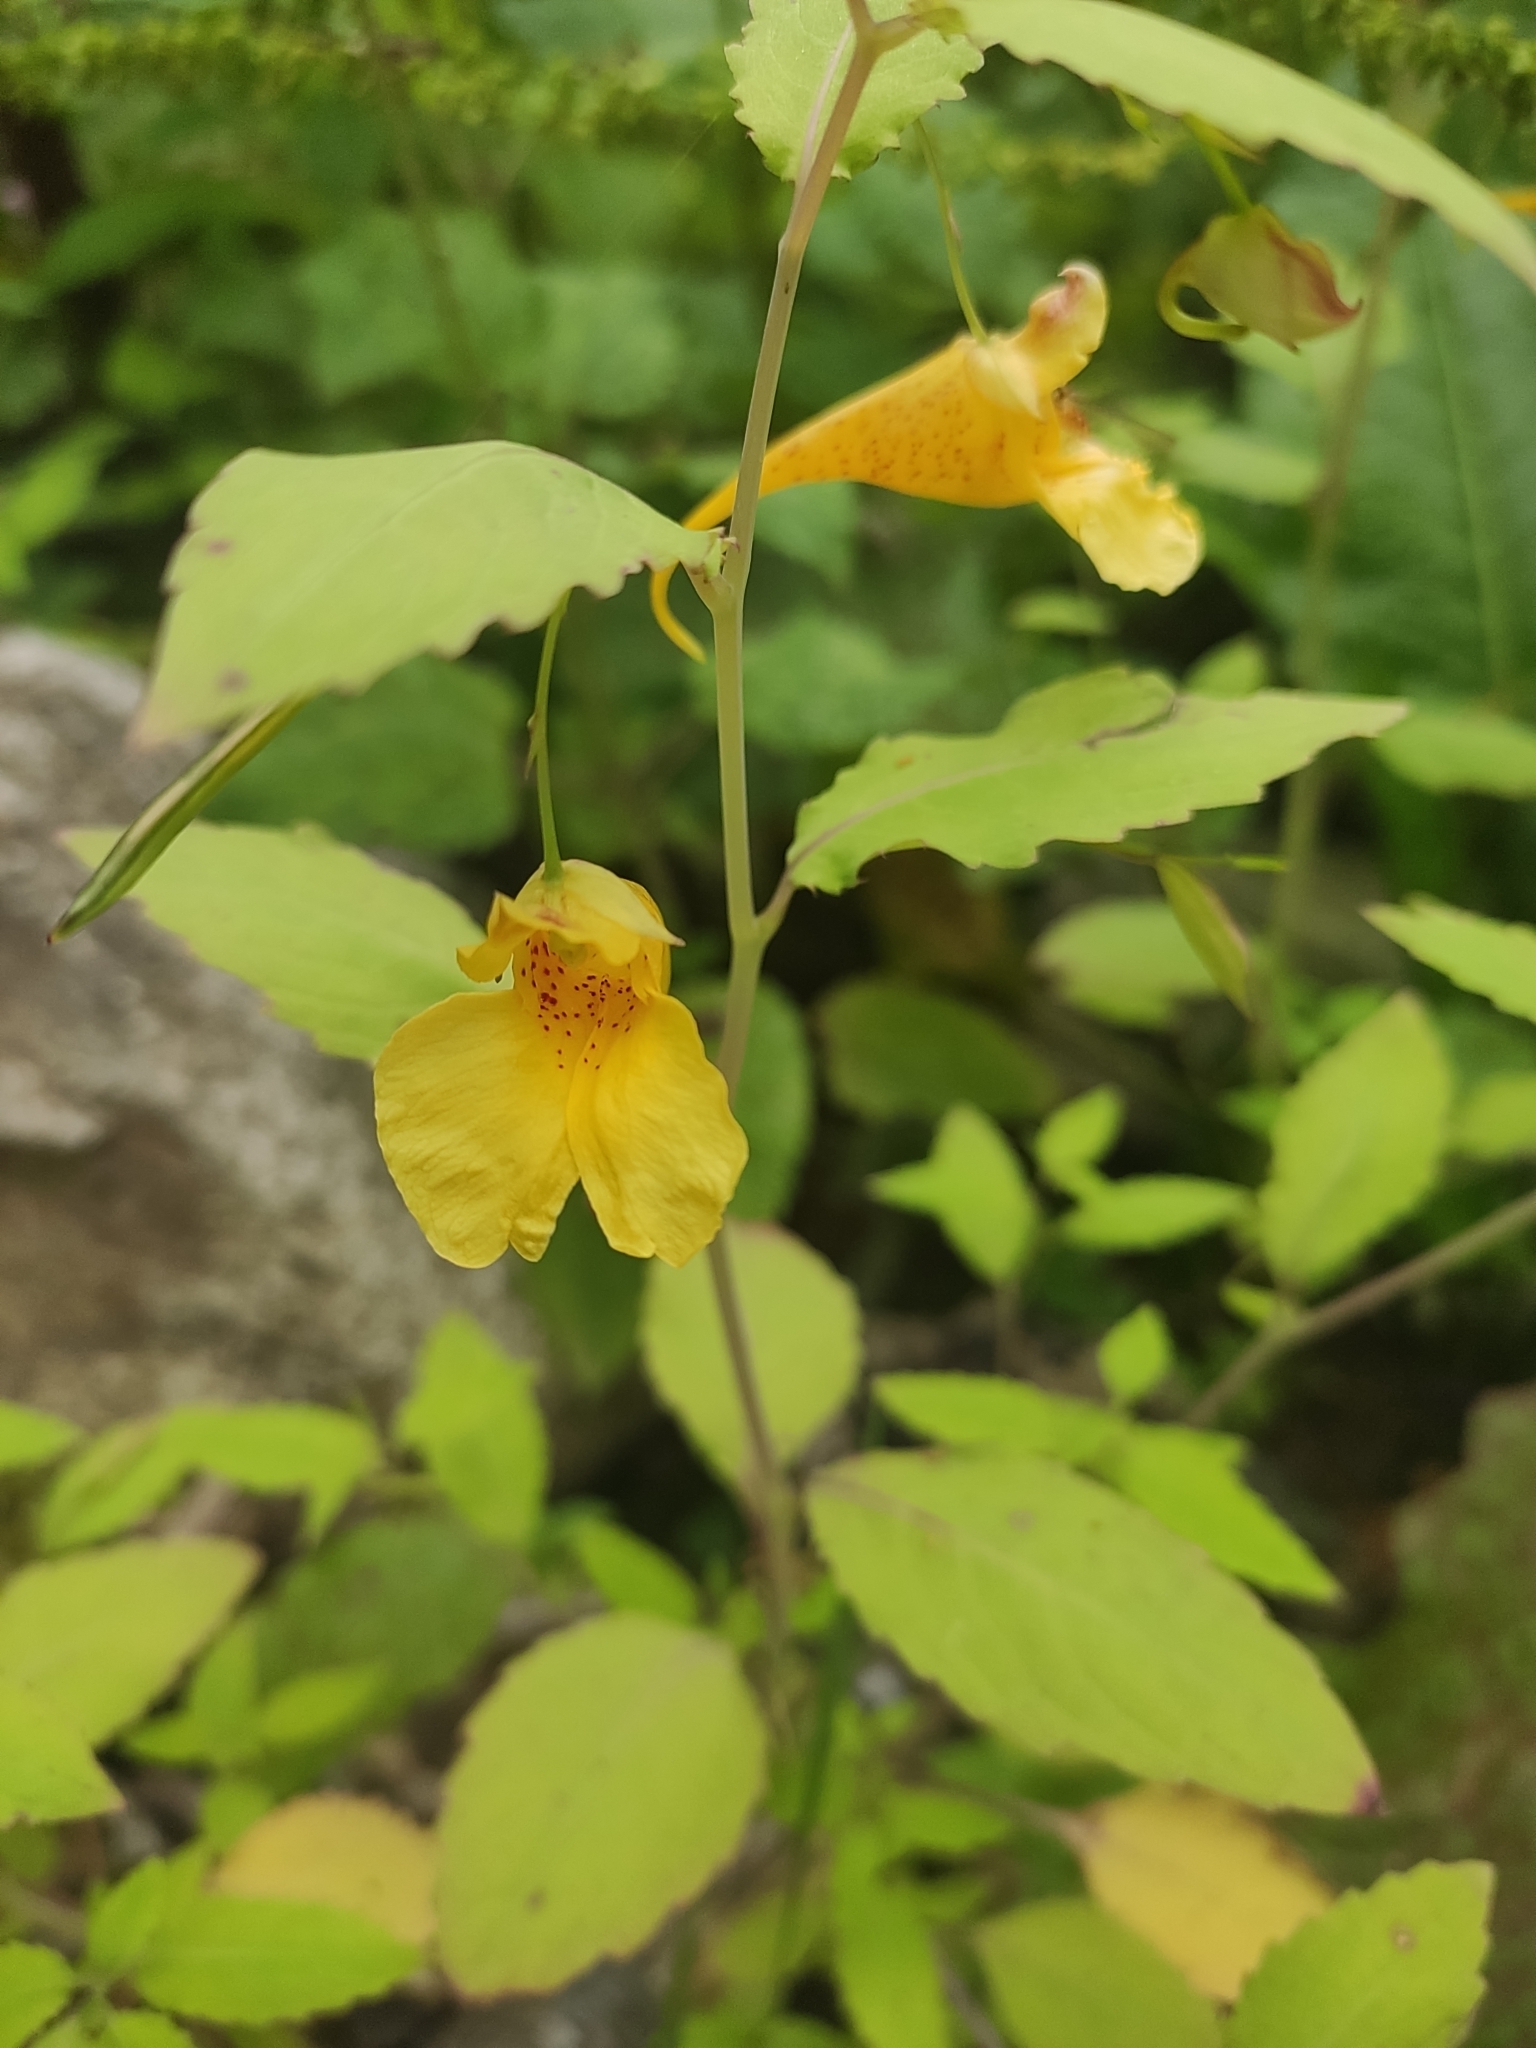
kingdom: Plantae
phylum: Tracheophyta
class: Magnoliopsida
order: Ericales
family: Balsaminaceae
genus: Impatiens
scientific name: Impatiens noli-tangere
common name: Touch-me-not balsam
